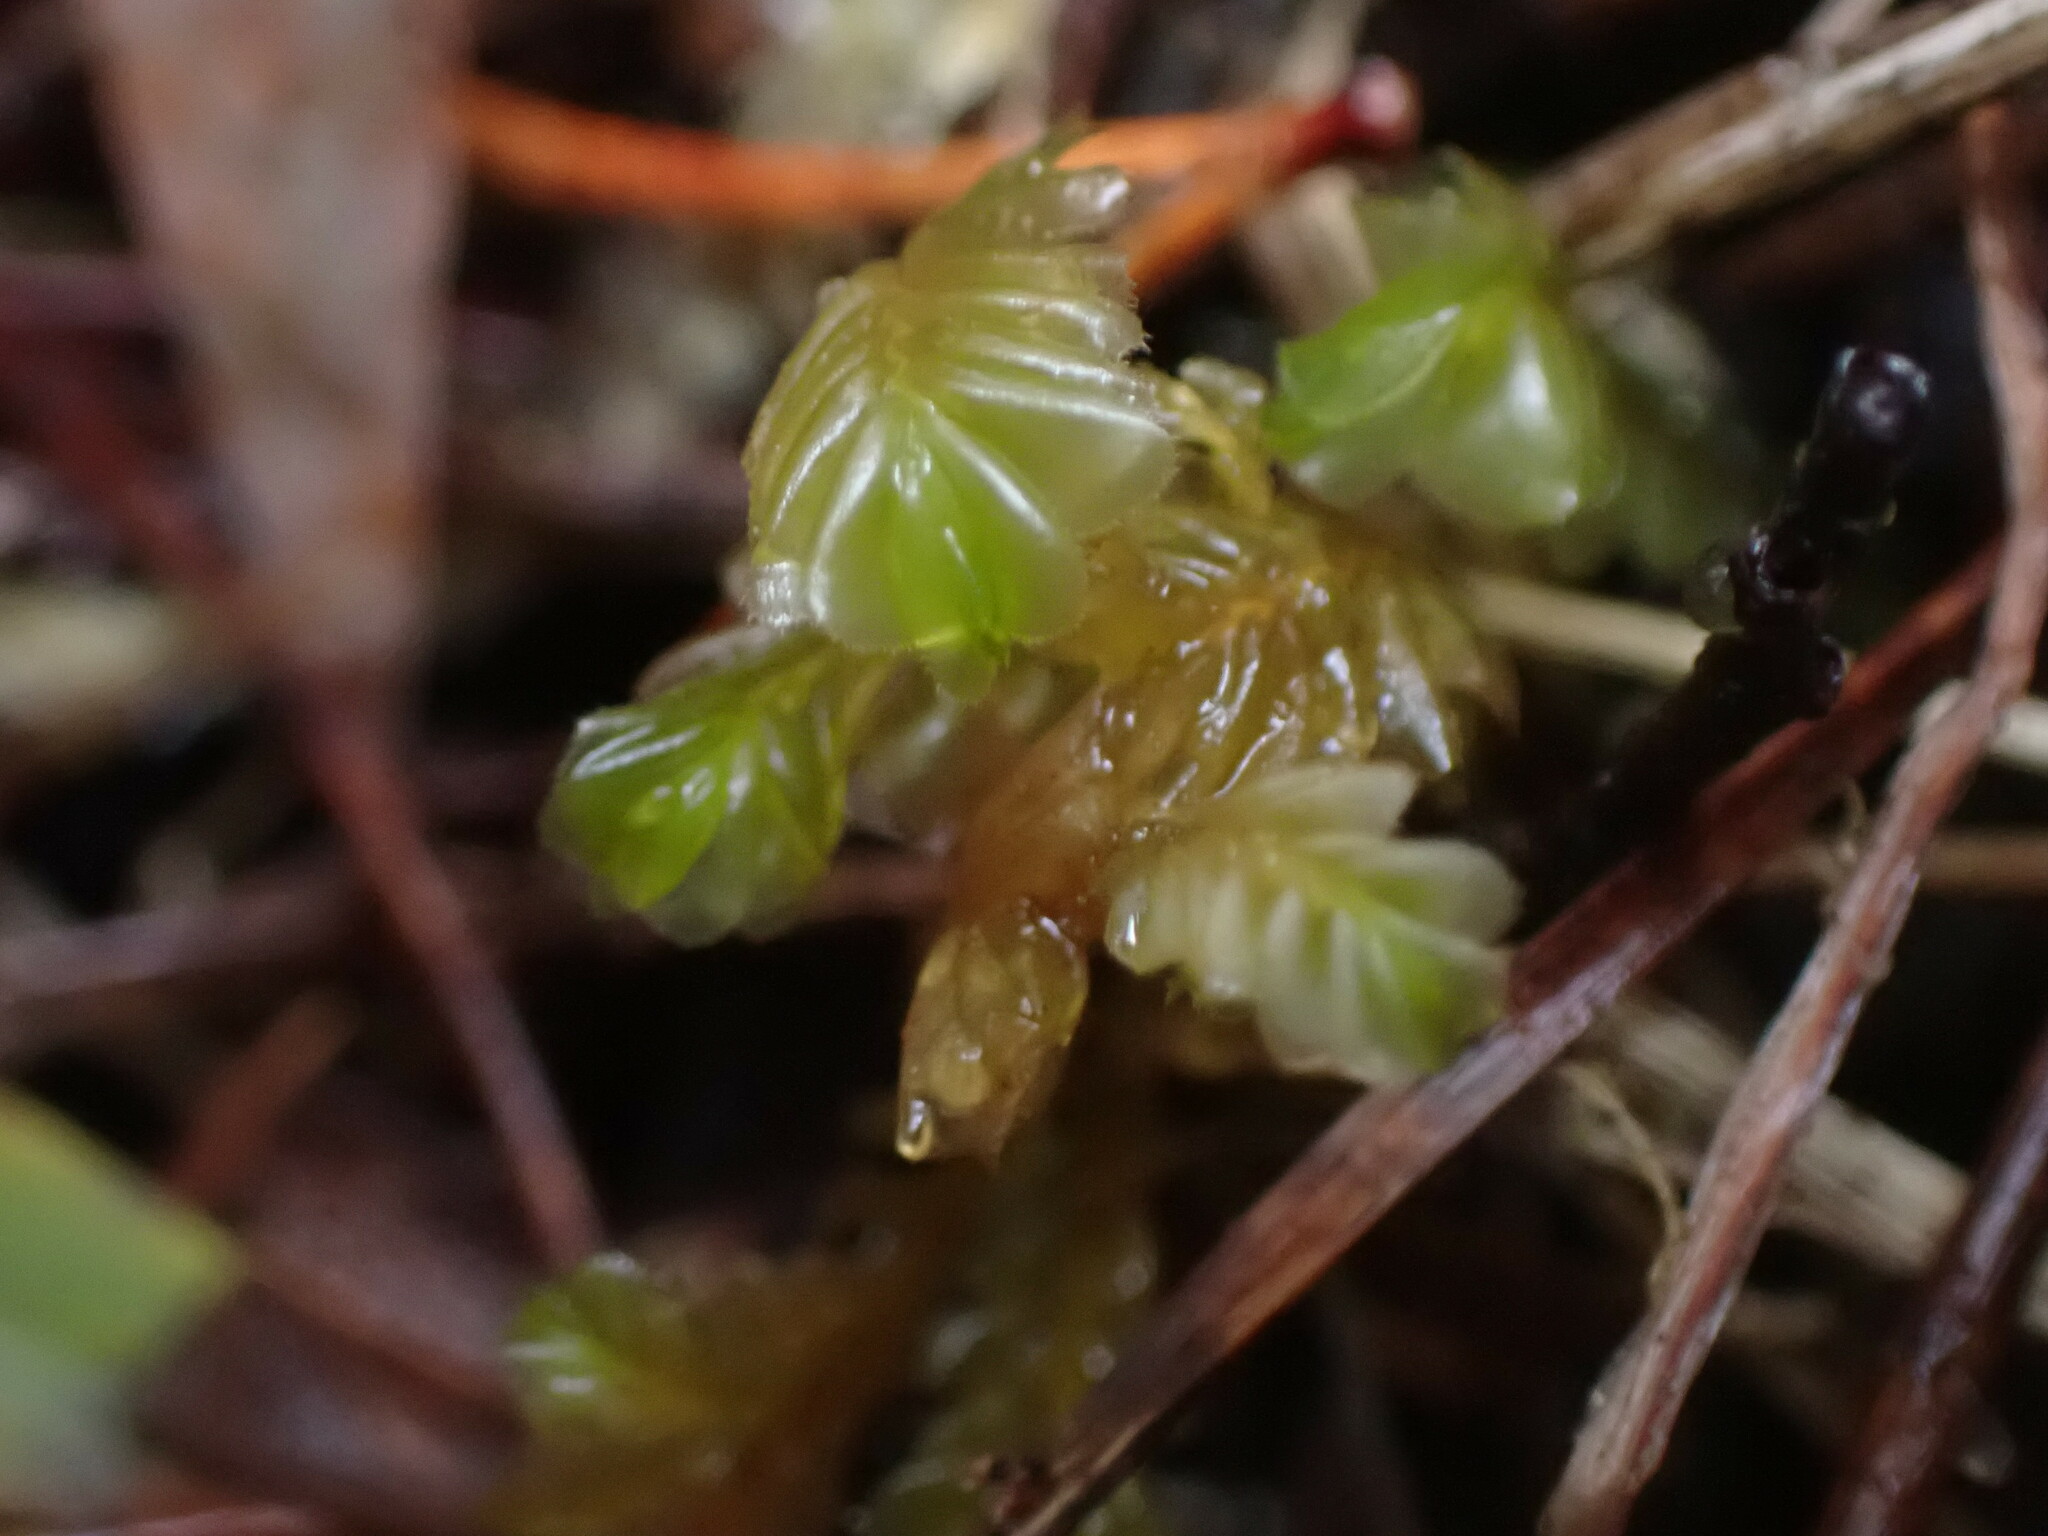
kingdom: Plantae
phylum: Marchantiophyta
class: Jungermanniopsida
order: Jungermanniales
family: Plagiochilaceae
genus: Plagiochila
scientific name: Plagiochila semidecurrens
